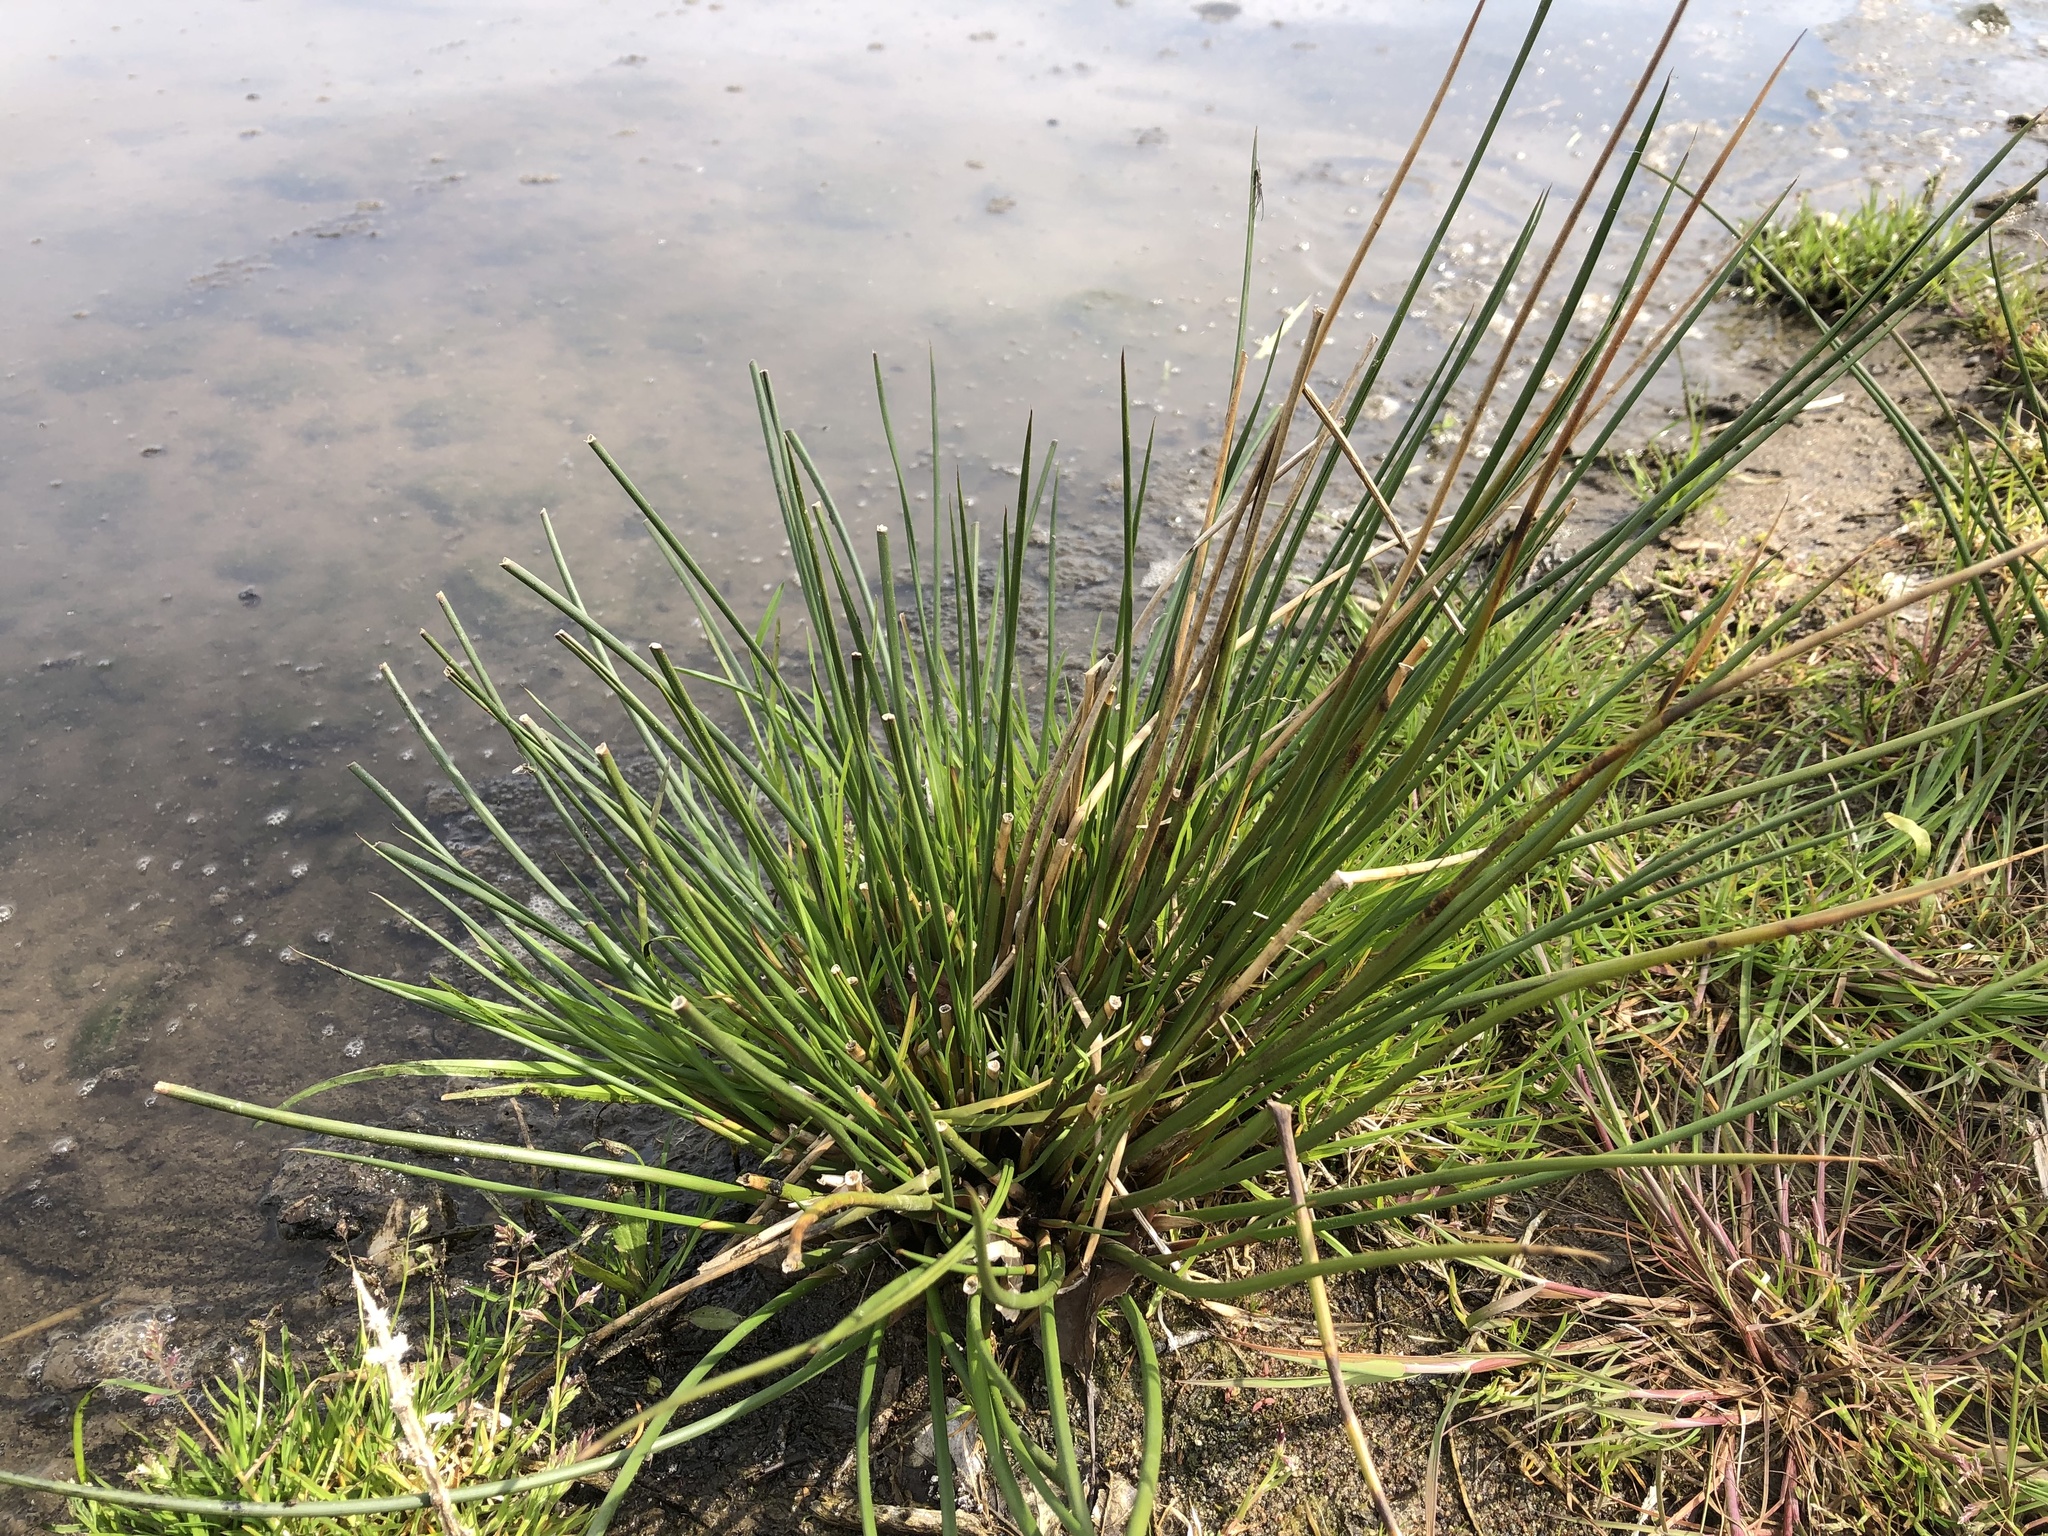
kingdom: Plantae
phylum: Tracheophyta
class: Liliopsida
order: Poales
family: Juncaceae
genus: Juncus
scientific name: Juncus effusus
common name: Soft rush
